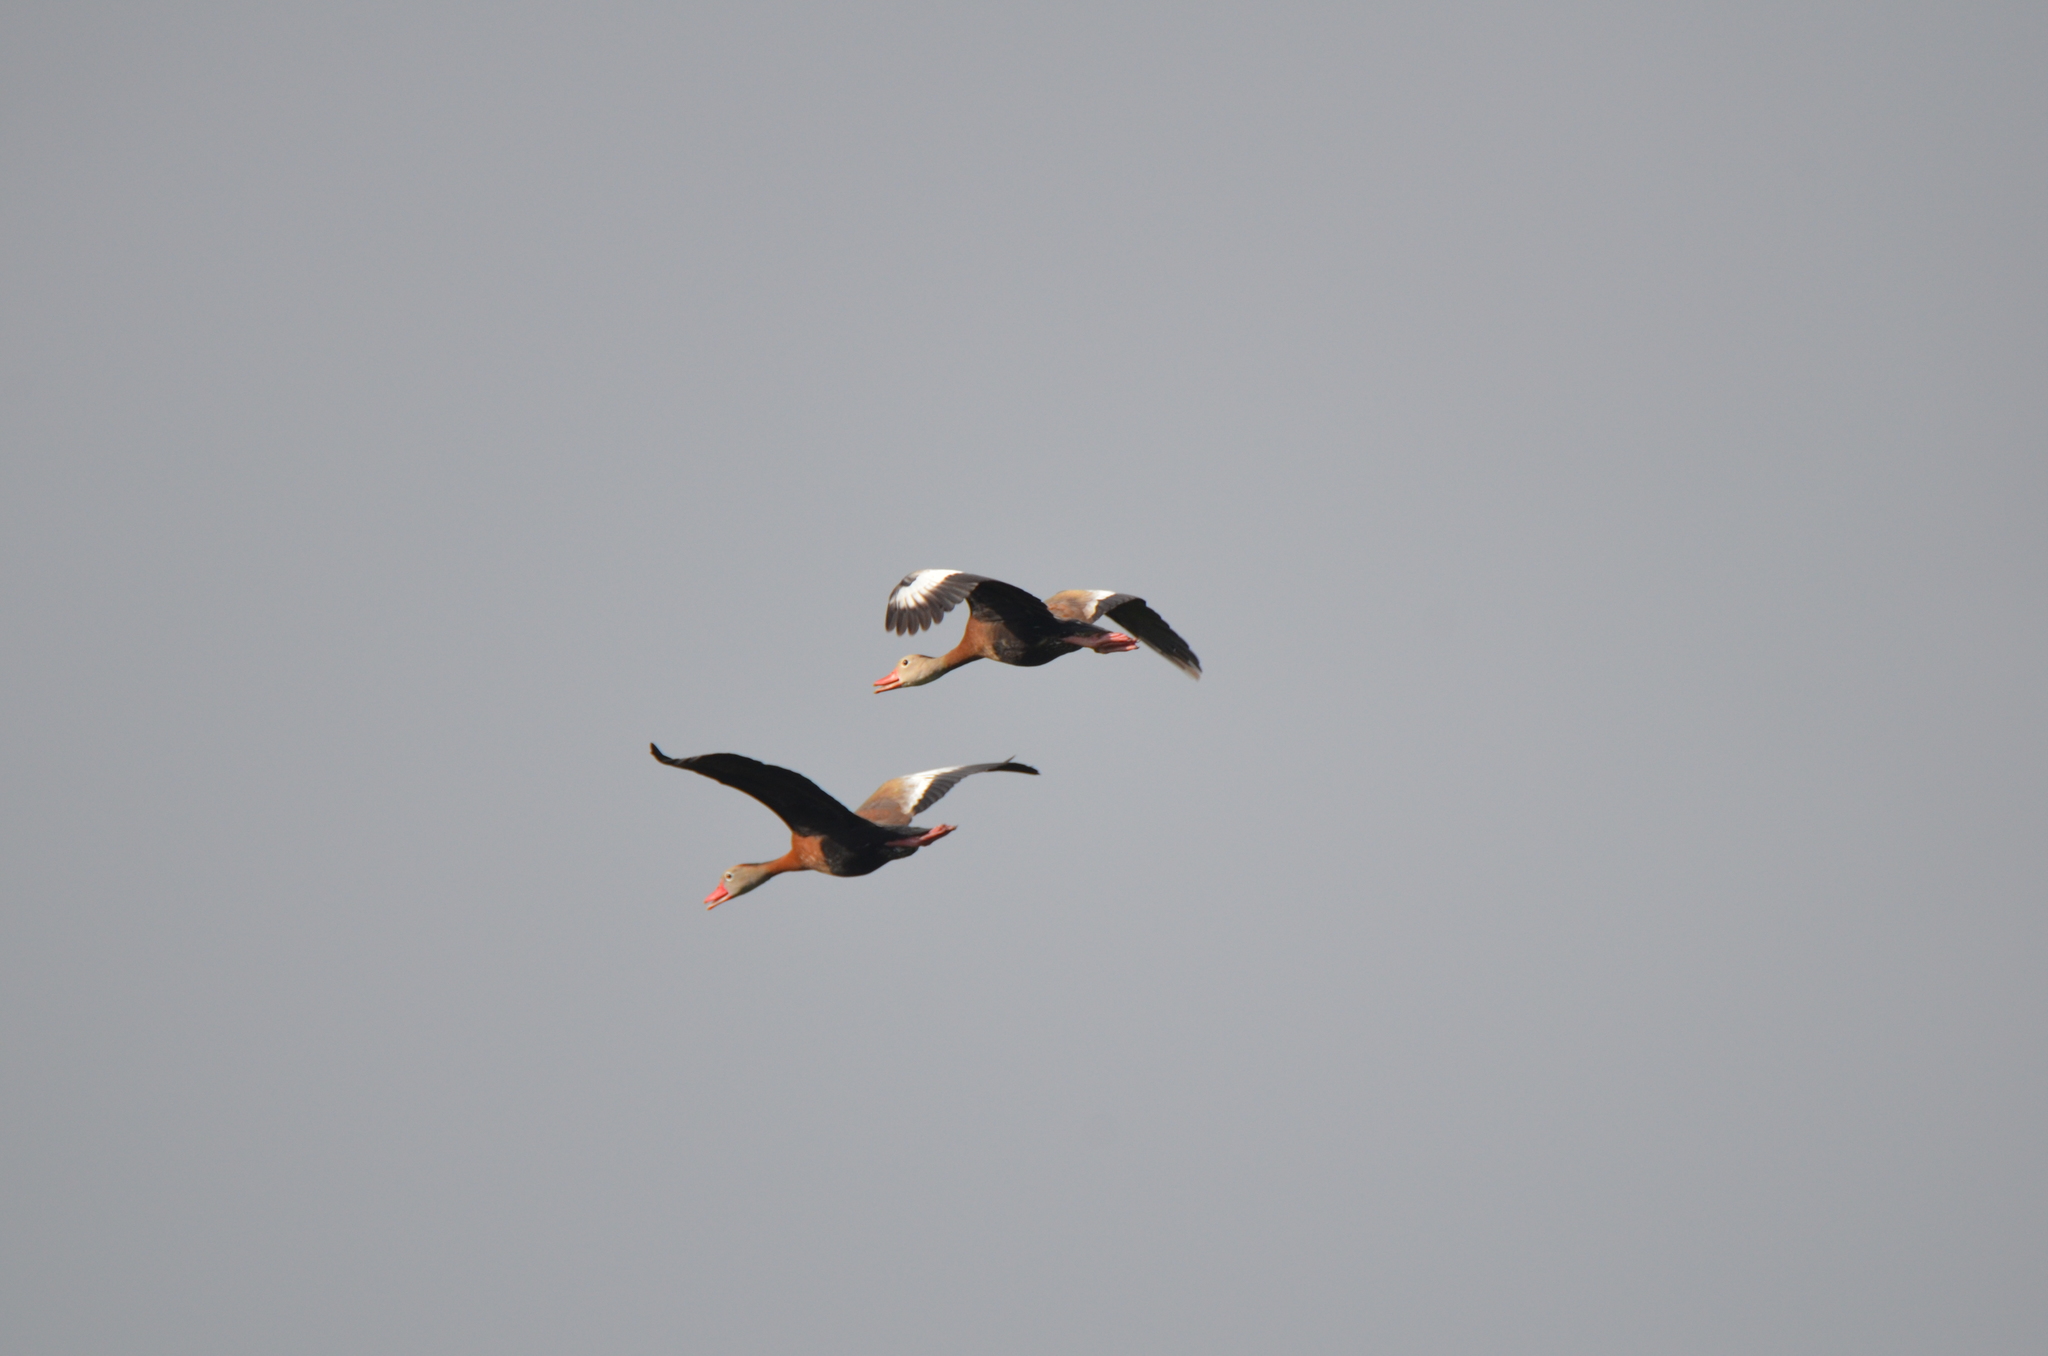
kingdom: Animalia
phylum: Chordata
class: Aves
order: Anseriformes
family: Anatidae
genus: Dendrocygna
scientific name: Dendrocygna autumnalis
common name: Black-bellied whistling duck
